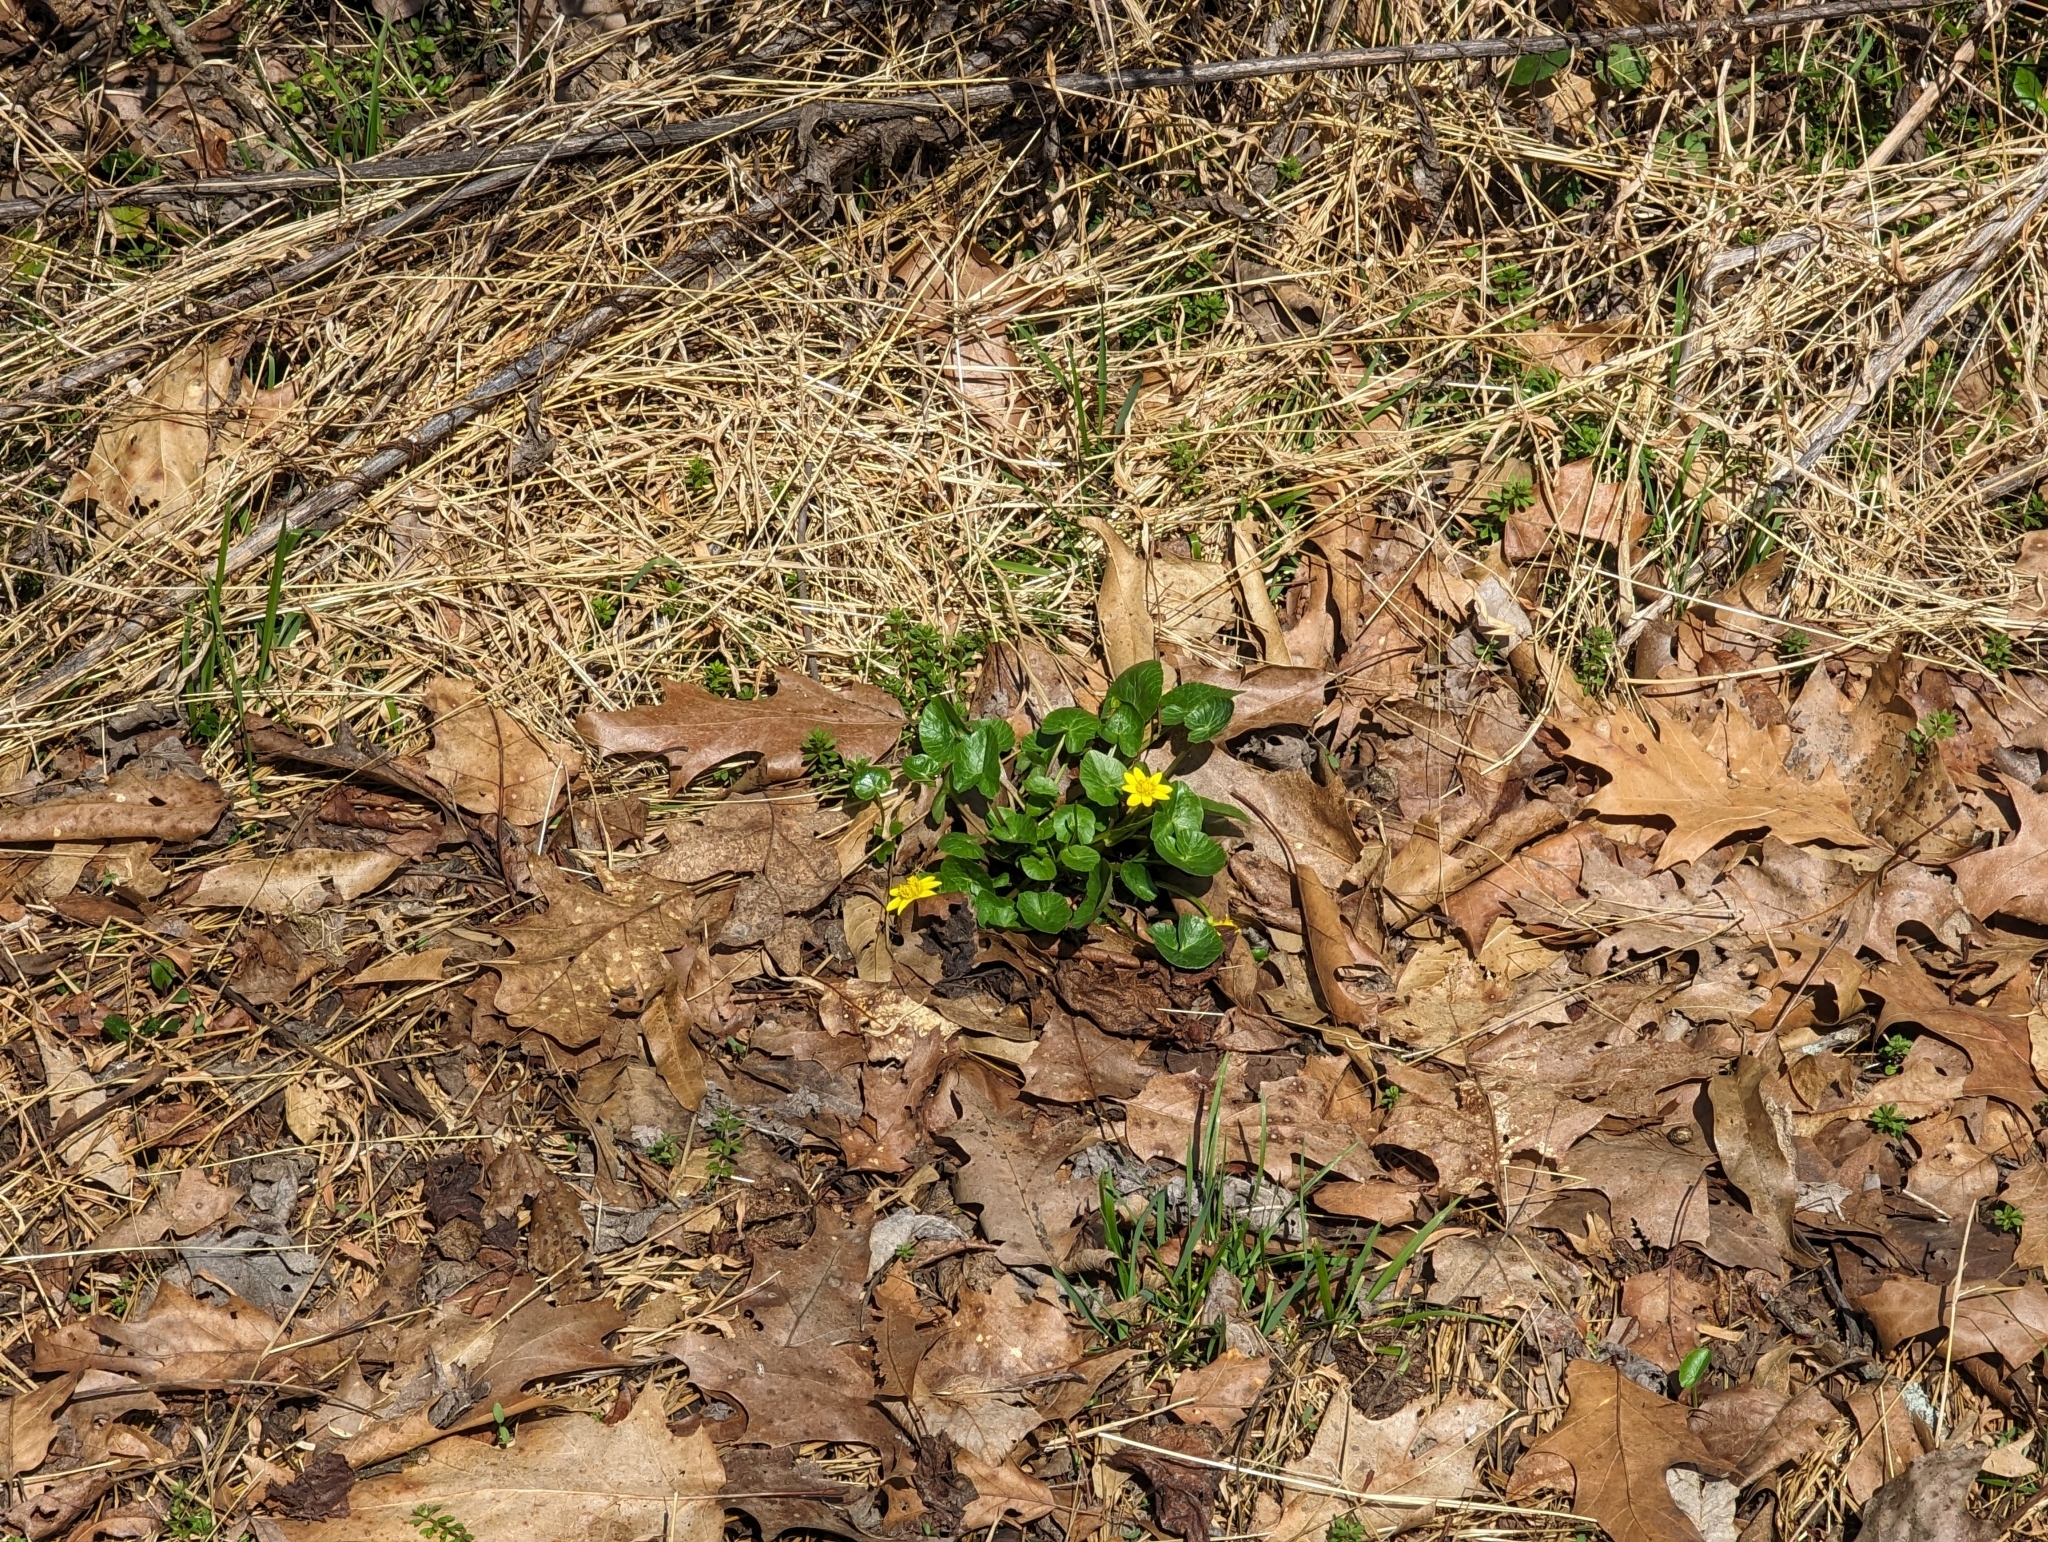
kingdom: Plantae
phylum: Tracheophyta
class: Magnoliopsida
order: Ranunculales
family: Ranunculaceae
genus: Ficaria
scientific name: Ficaria verna
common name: Lesser celandine
